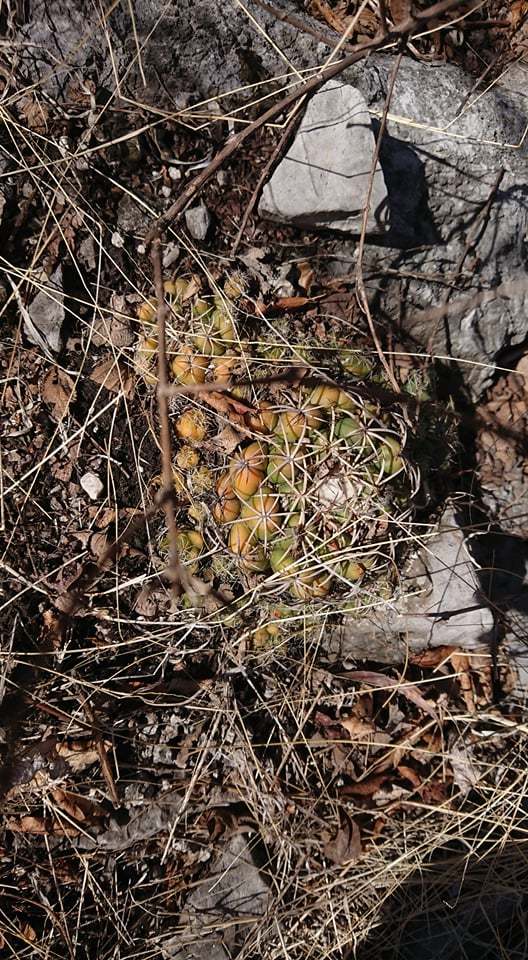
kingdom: Plantae
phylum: Tracheophyta
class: Magnoliopsida
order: Caryophyllales
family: Cactaceae
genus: Coryphantha
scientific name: Coryphantha elephantidens
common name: Elephant's tooth
